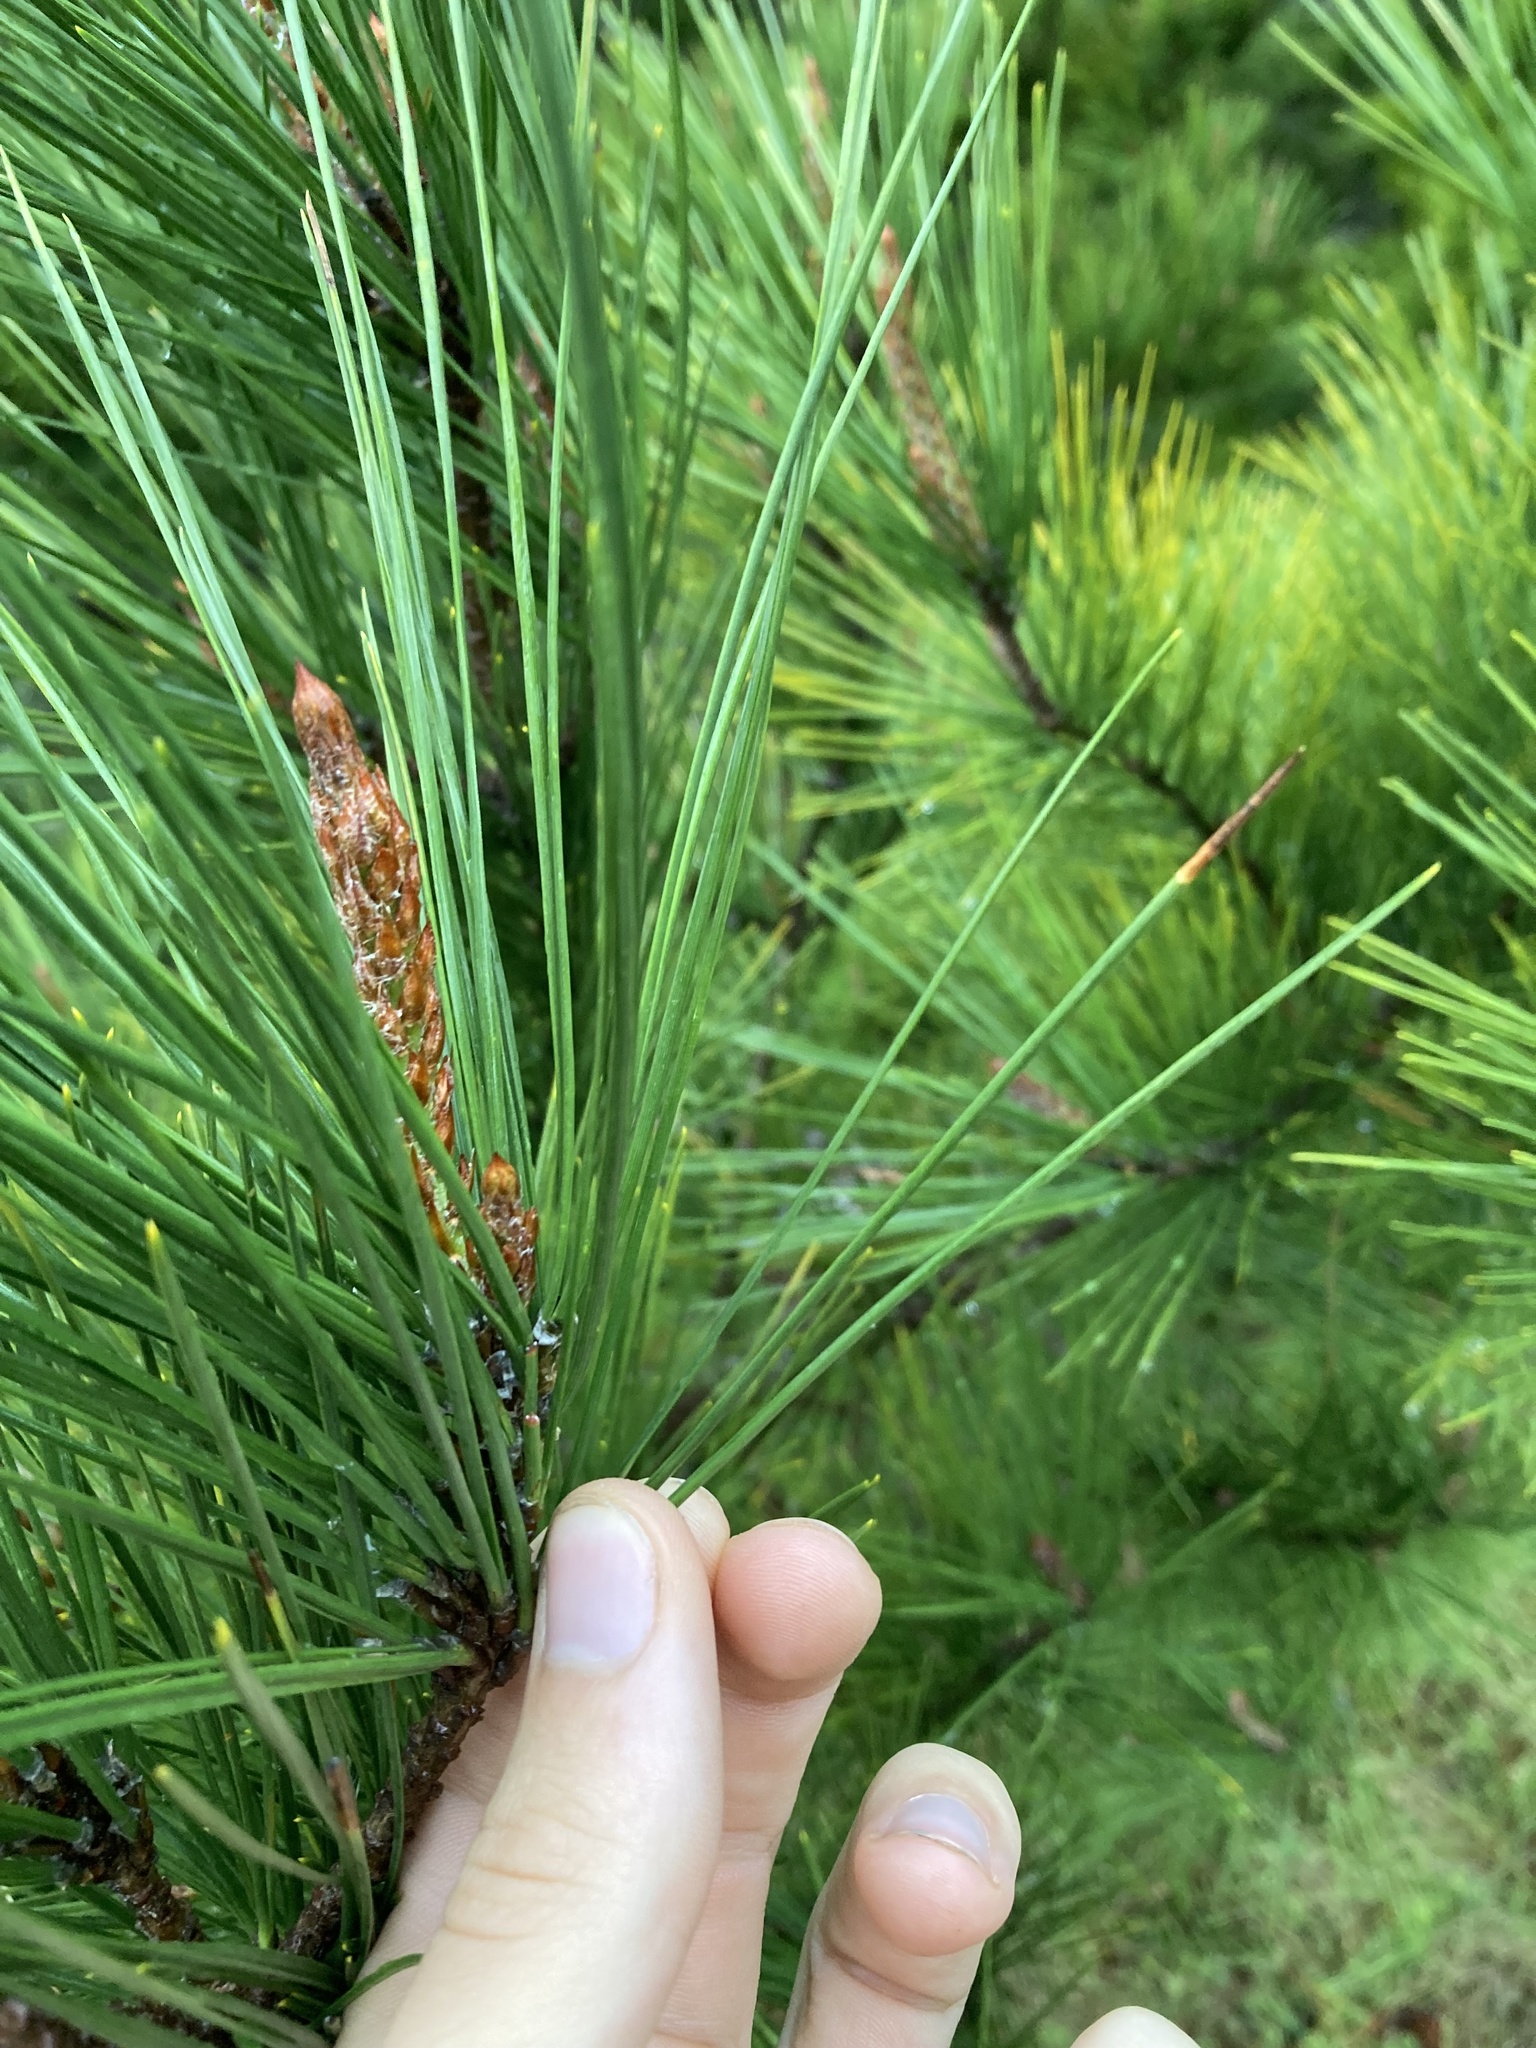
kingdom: Plantae
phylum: Tracheophyta
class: Pinopsida
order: Pinales
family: Pinaceae
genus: Pinus
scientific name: Pinus radiata
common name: Monterey pine
